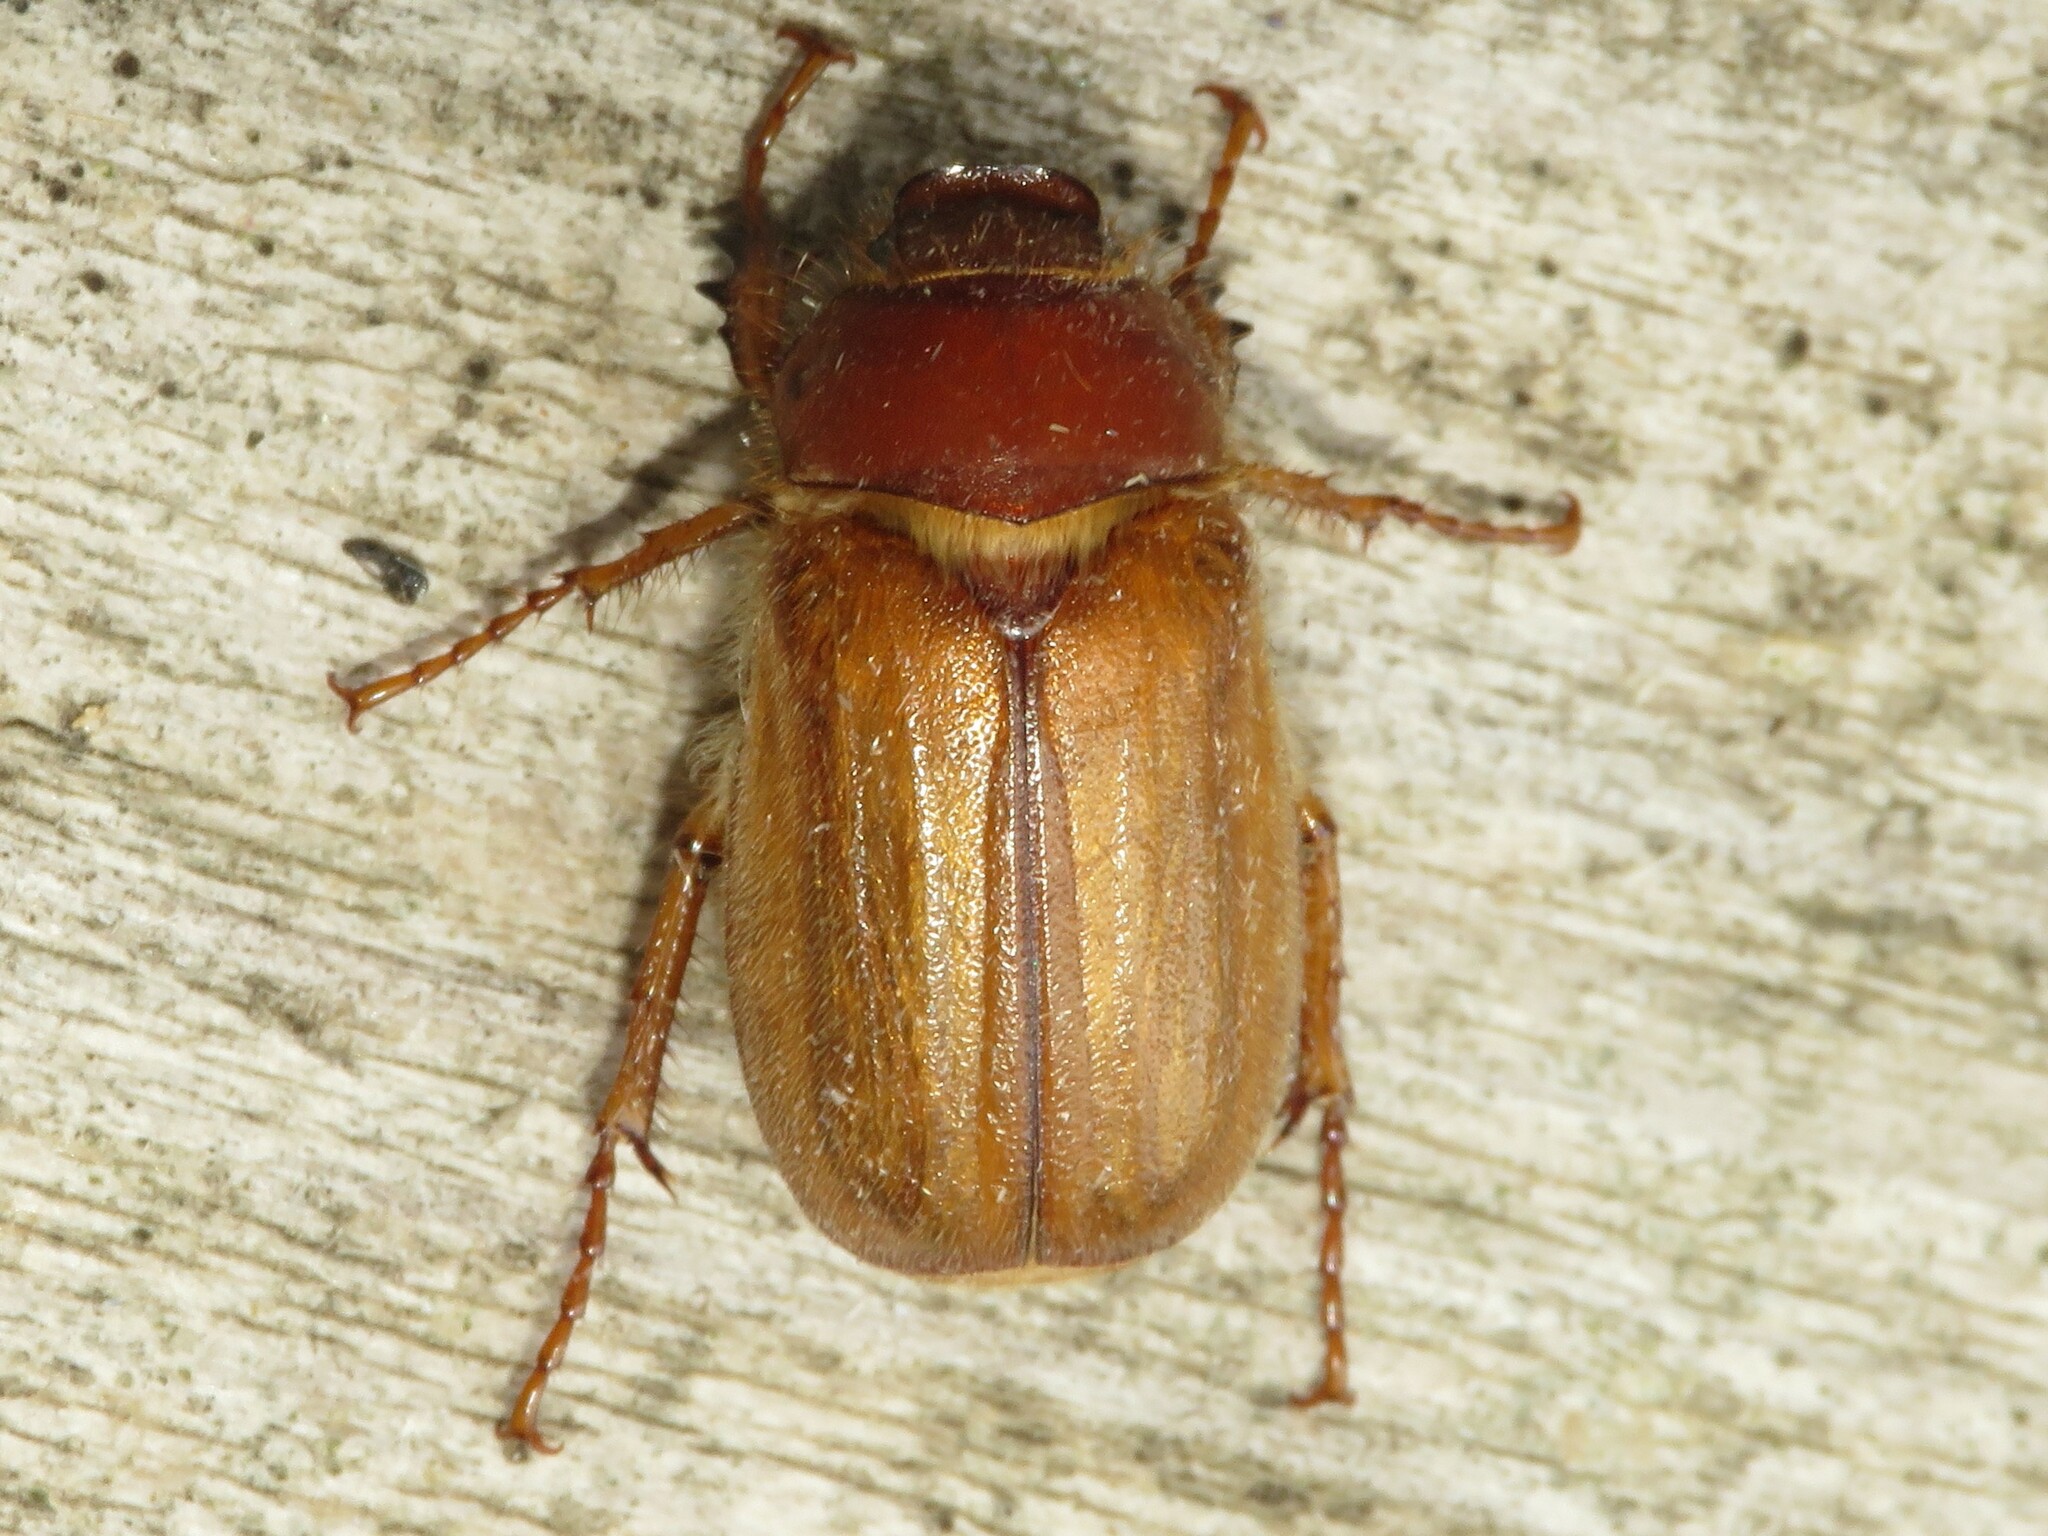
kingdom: Animalia
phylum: Arthropoda
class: Insecta
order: Coleoptera
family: Scarabaeidae
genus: Amphimallon
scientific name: Amphimallon majale
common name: European chafer
